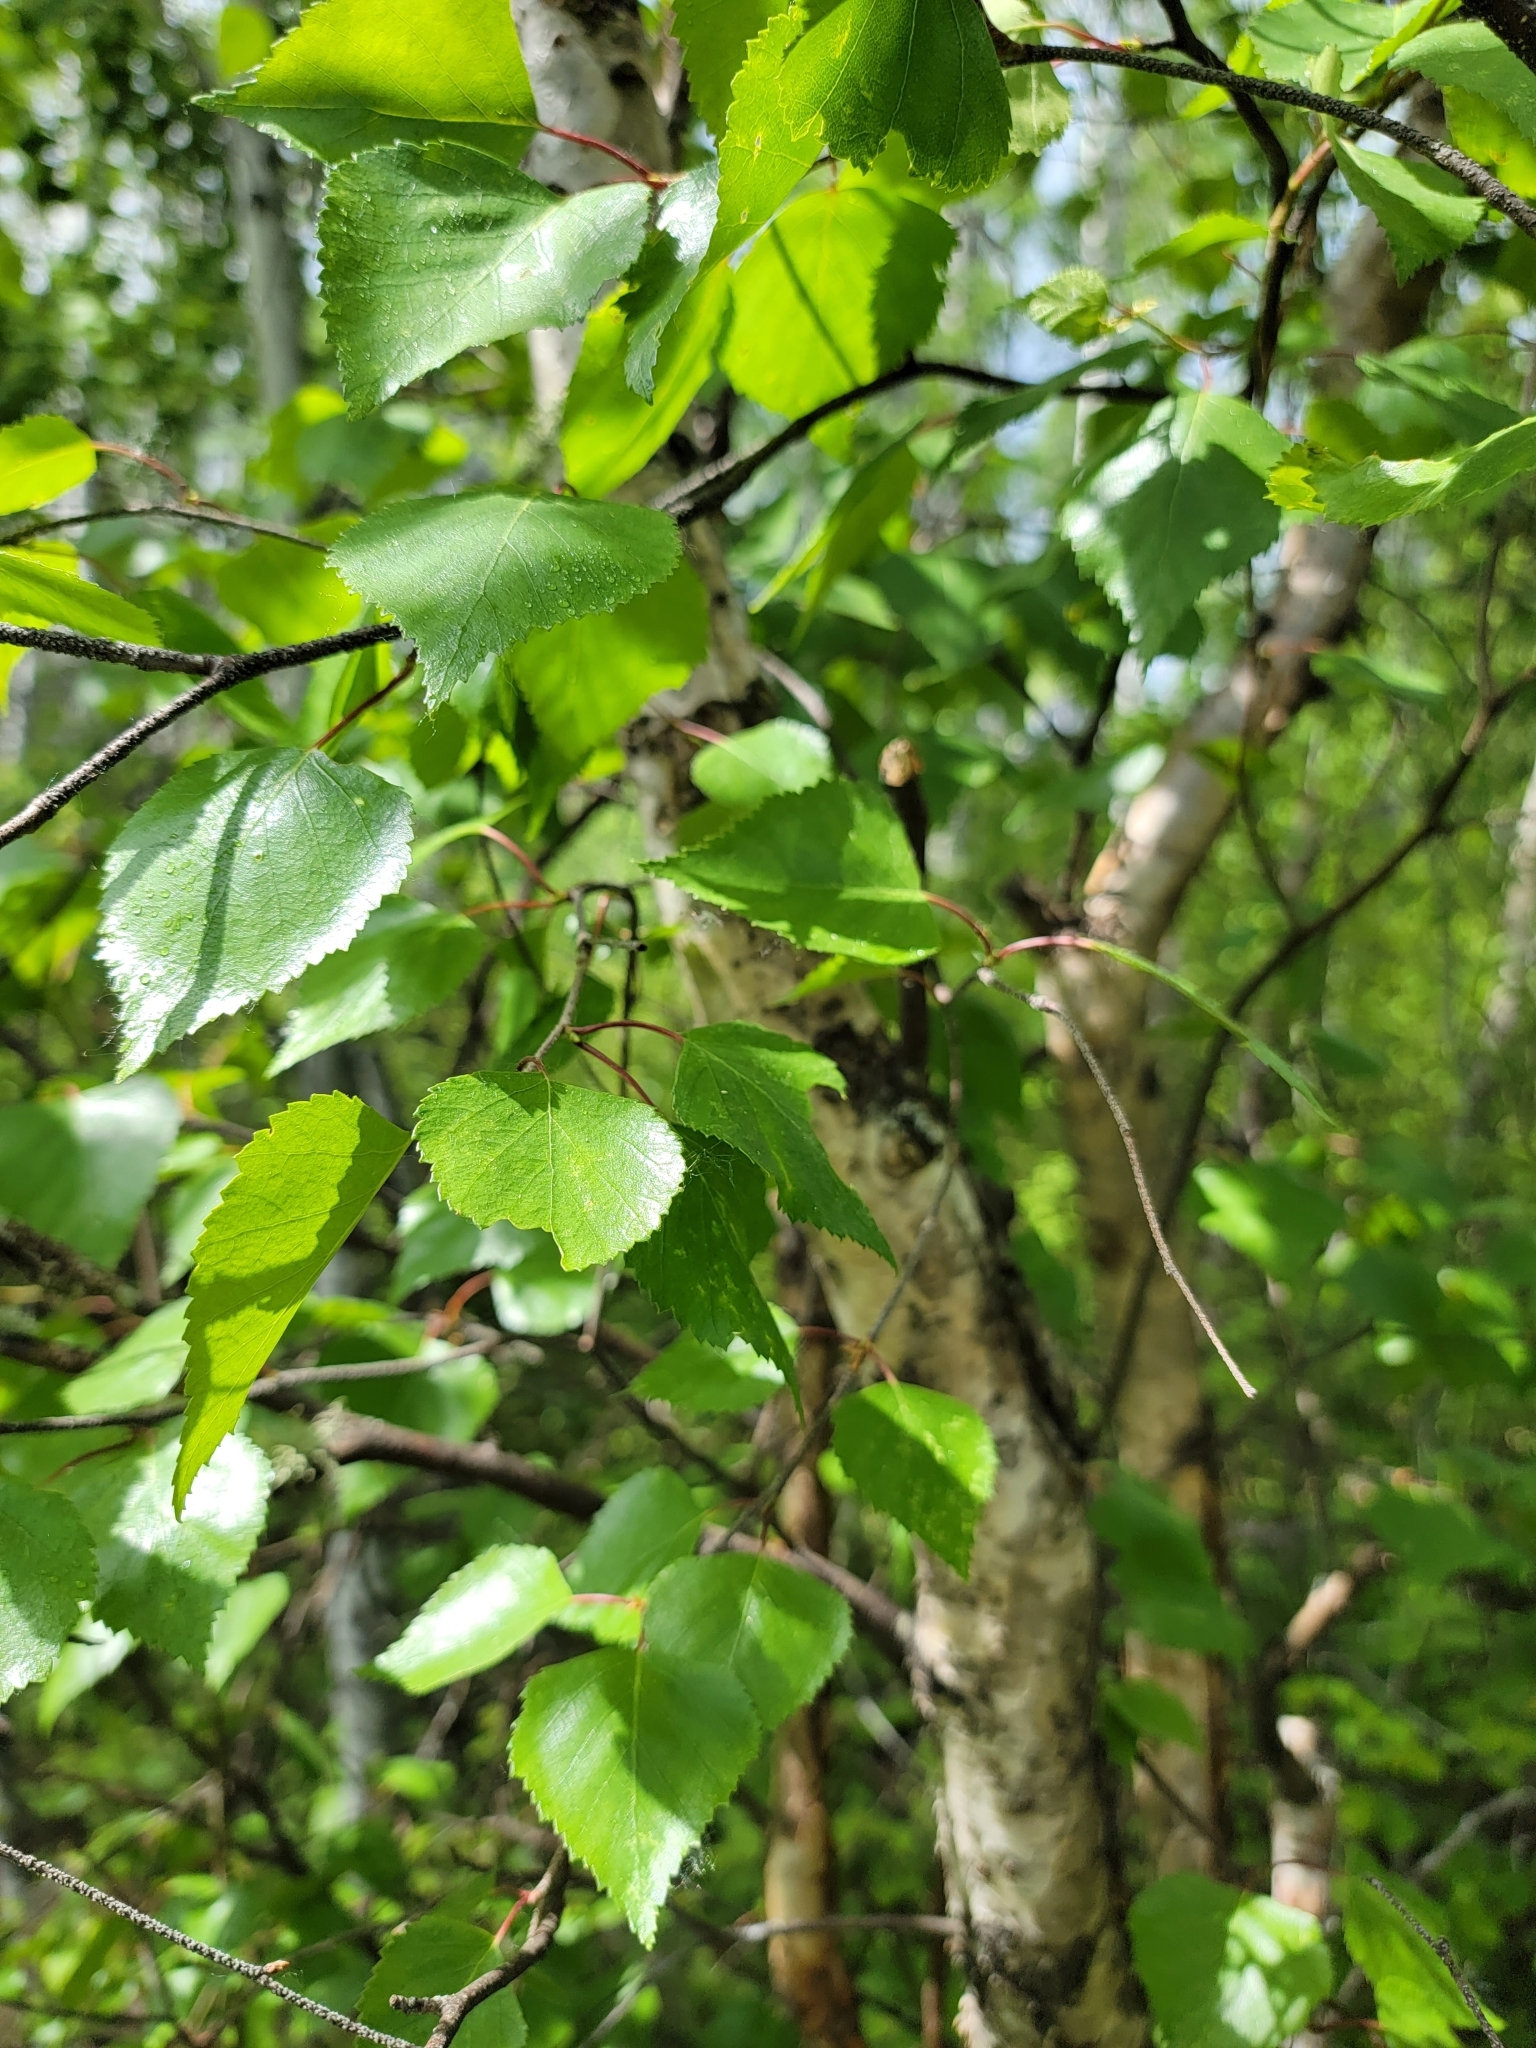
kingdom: Plantae
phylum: Tracheophyta
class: Magnoliopsida
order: Fagales
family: Betulaceae
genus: Betula
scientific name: Betula papyrifera
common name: Paper birch
